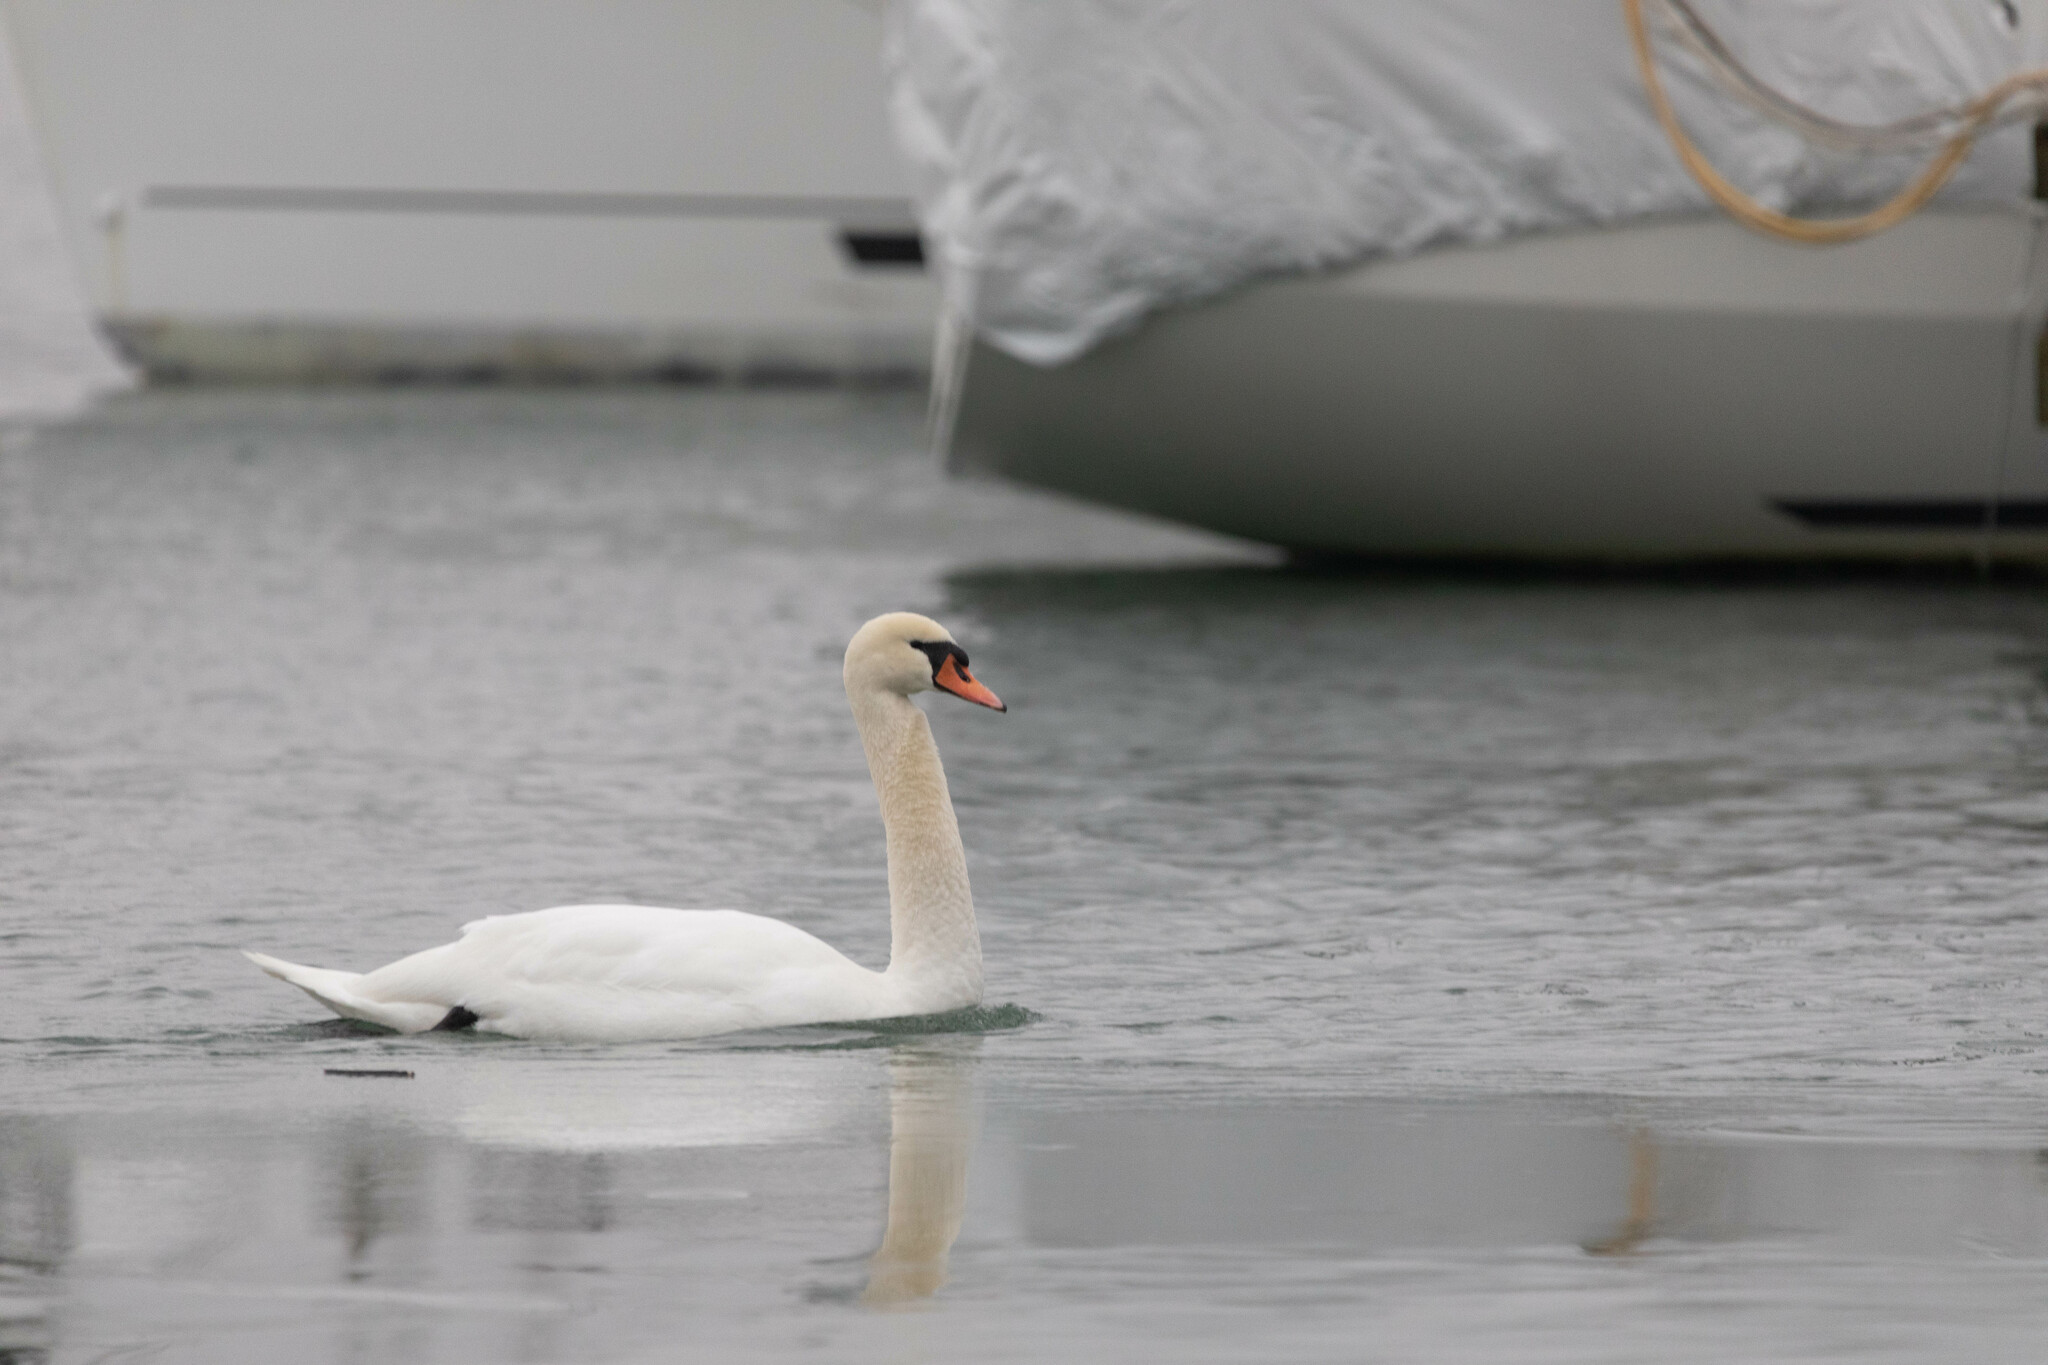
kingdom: Animalia
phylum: Chordata
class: Aves
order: Anseriformes
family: Anatidae
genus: Cygnus
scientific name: Cygnus olor
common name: Mute swan
